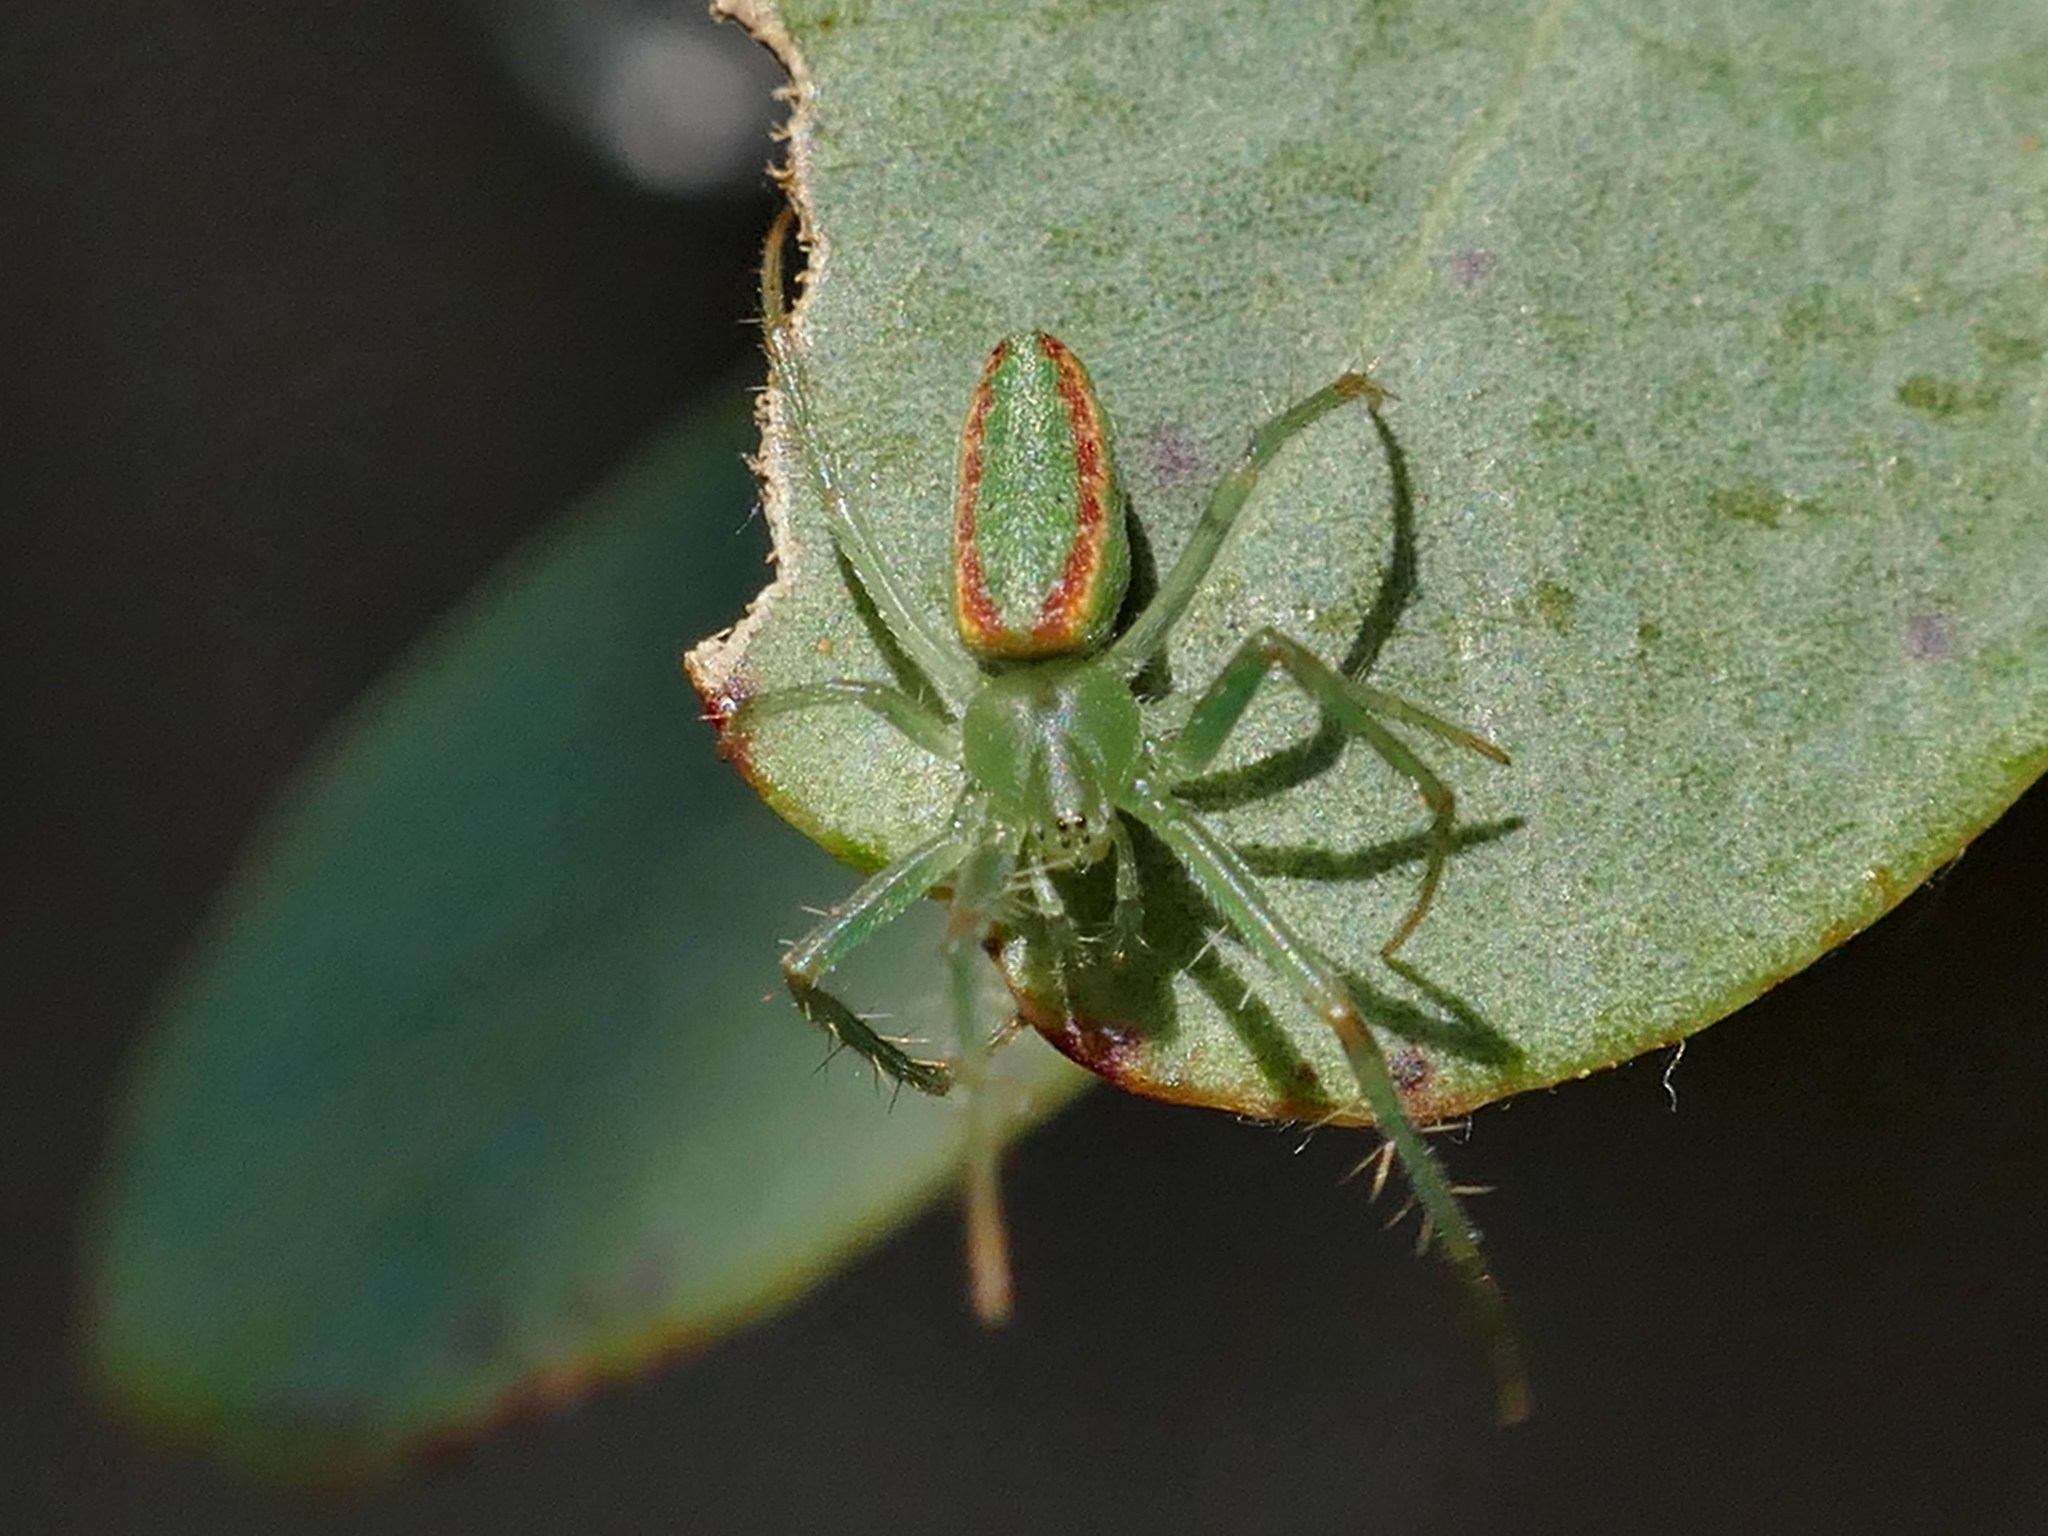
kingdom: Animalia
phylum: Arthropoda
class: Arachnida
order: Araneae
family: Araneidae
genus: Araneus
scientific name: Araneus talipedatus
